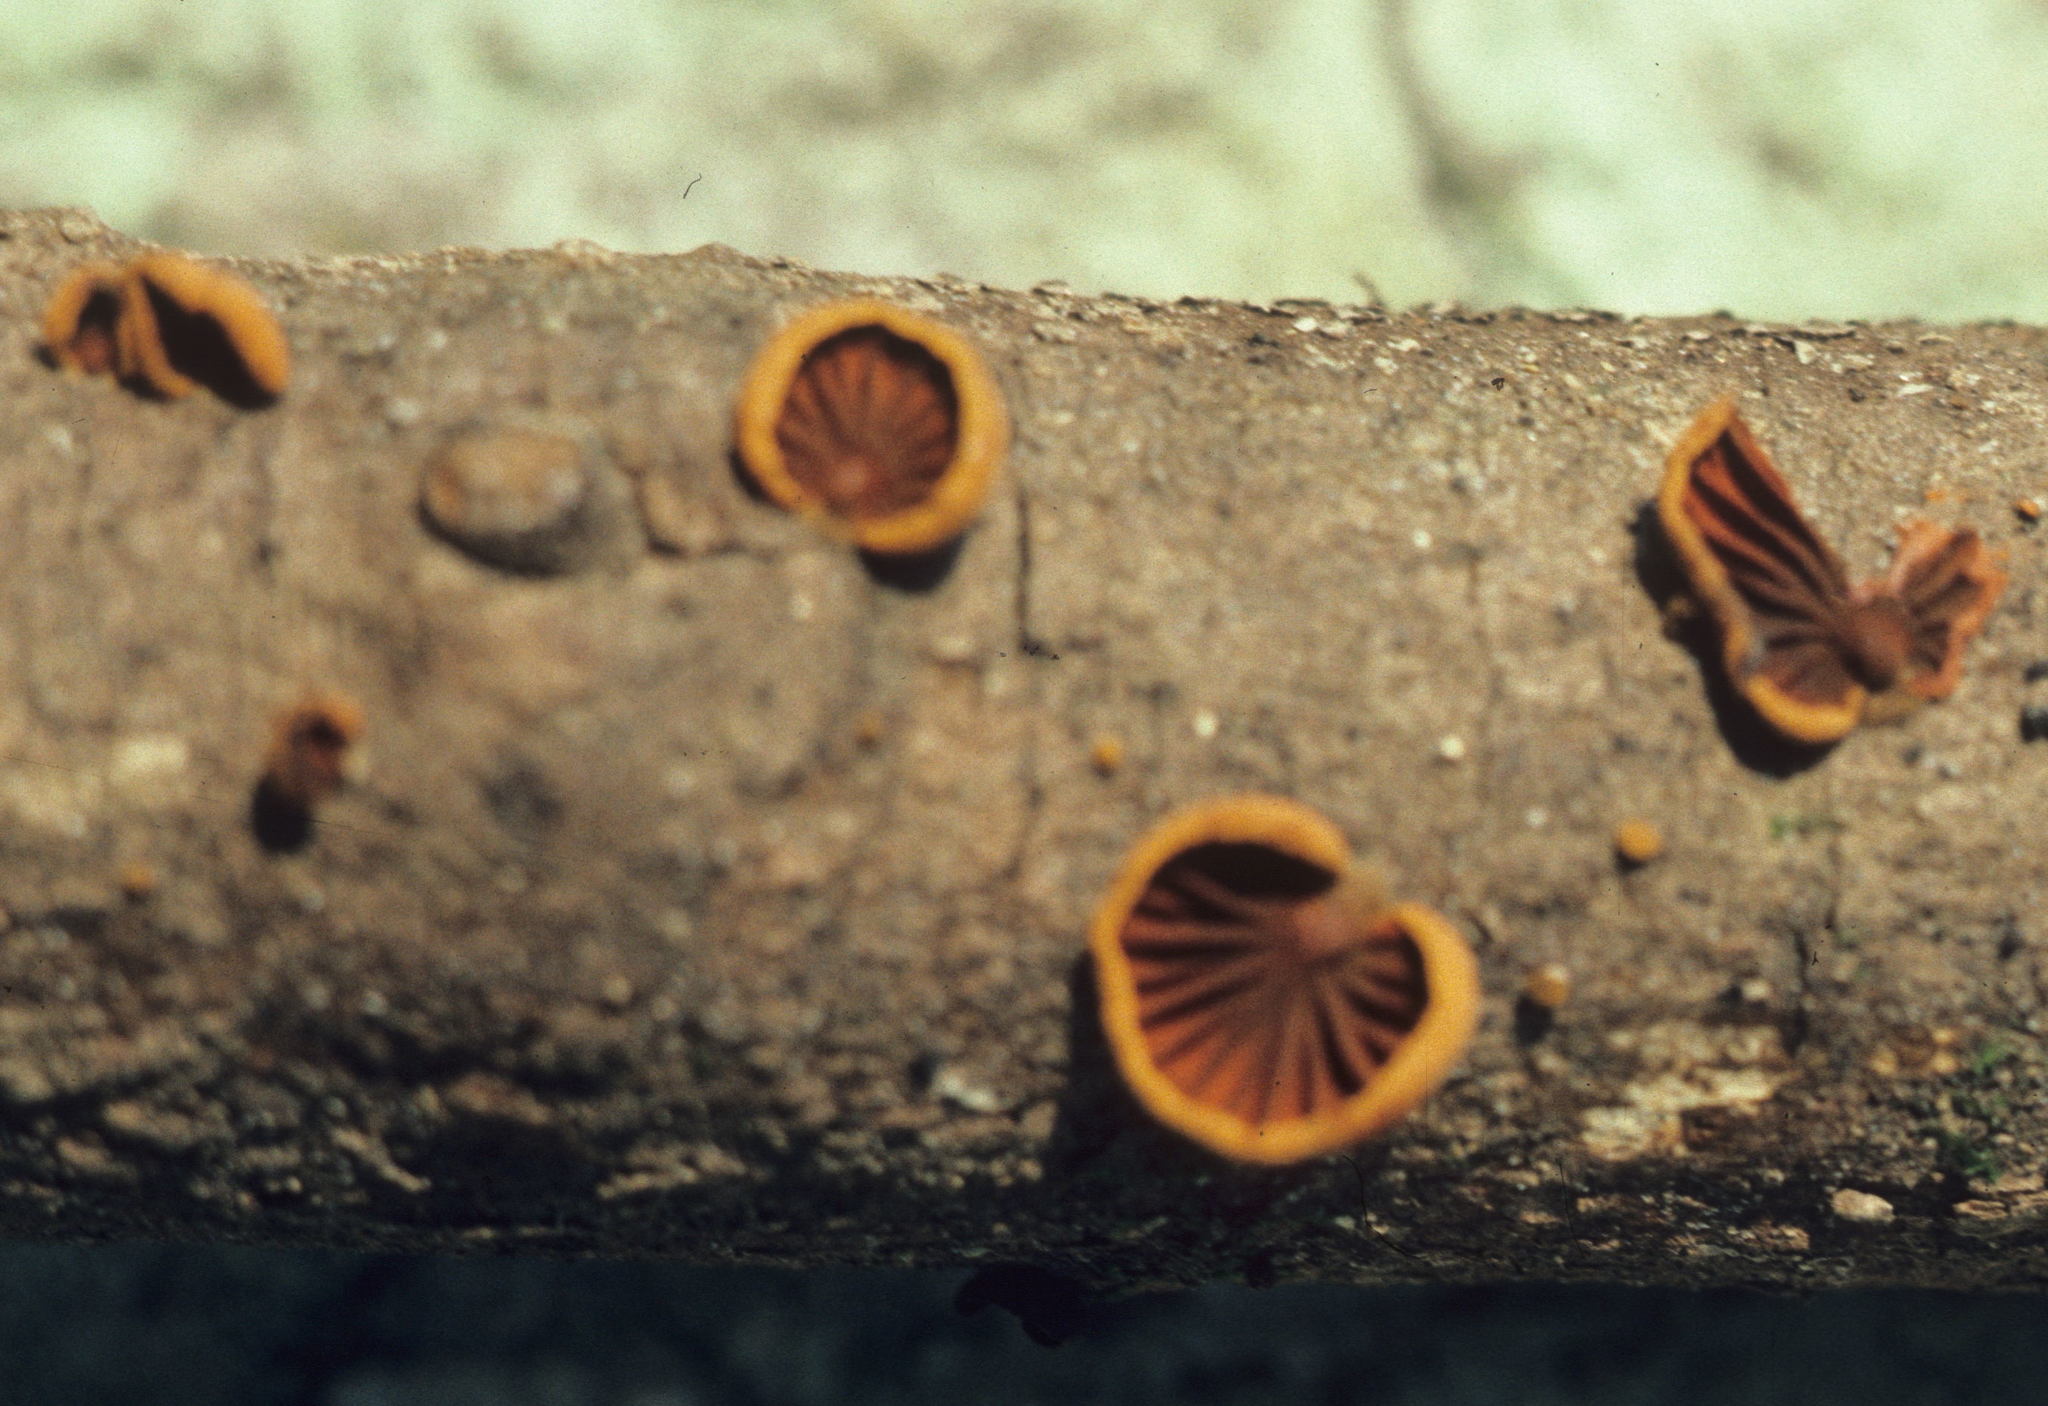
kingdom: Fungi
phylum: Basidiomycota
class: Agaricomycetes
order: Agaricales
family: Omphalotaceae
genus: Anthracophyllum
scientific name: Anthracophyllum lateritium
